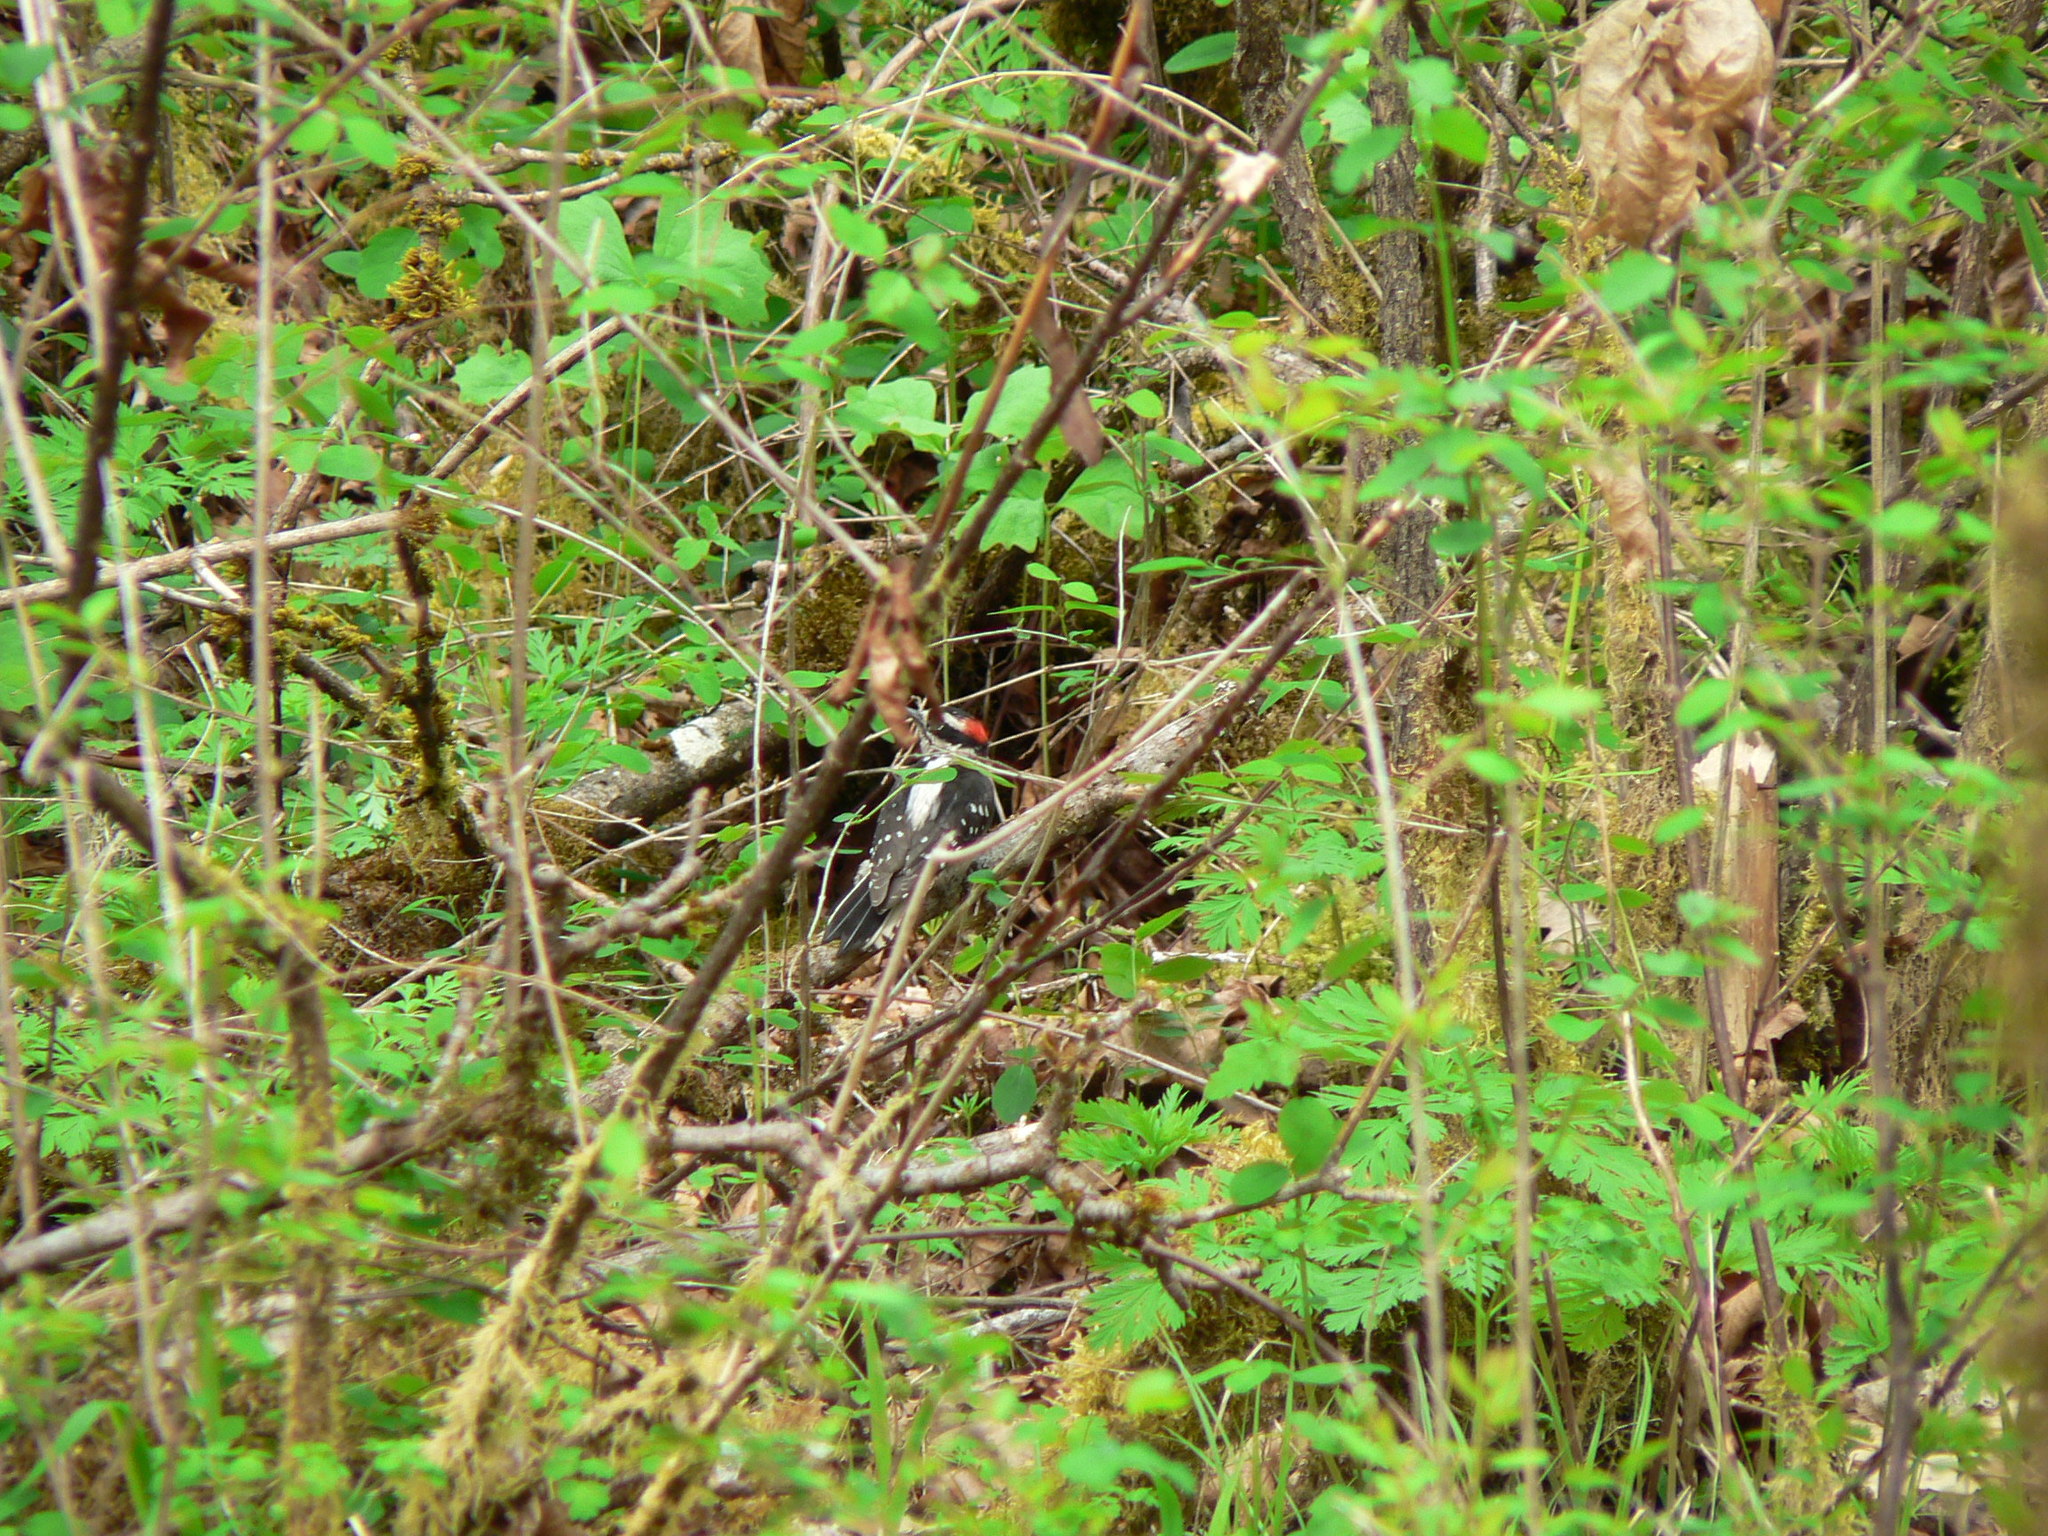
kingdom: Animalia
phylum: Chordata
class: Aves
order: Piciformes
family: Picidae
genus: Dryobates
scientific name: Dryobates pubescens
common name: Downy woodpecker
